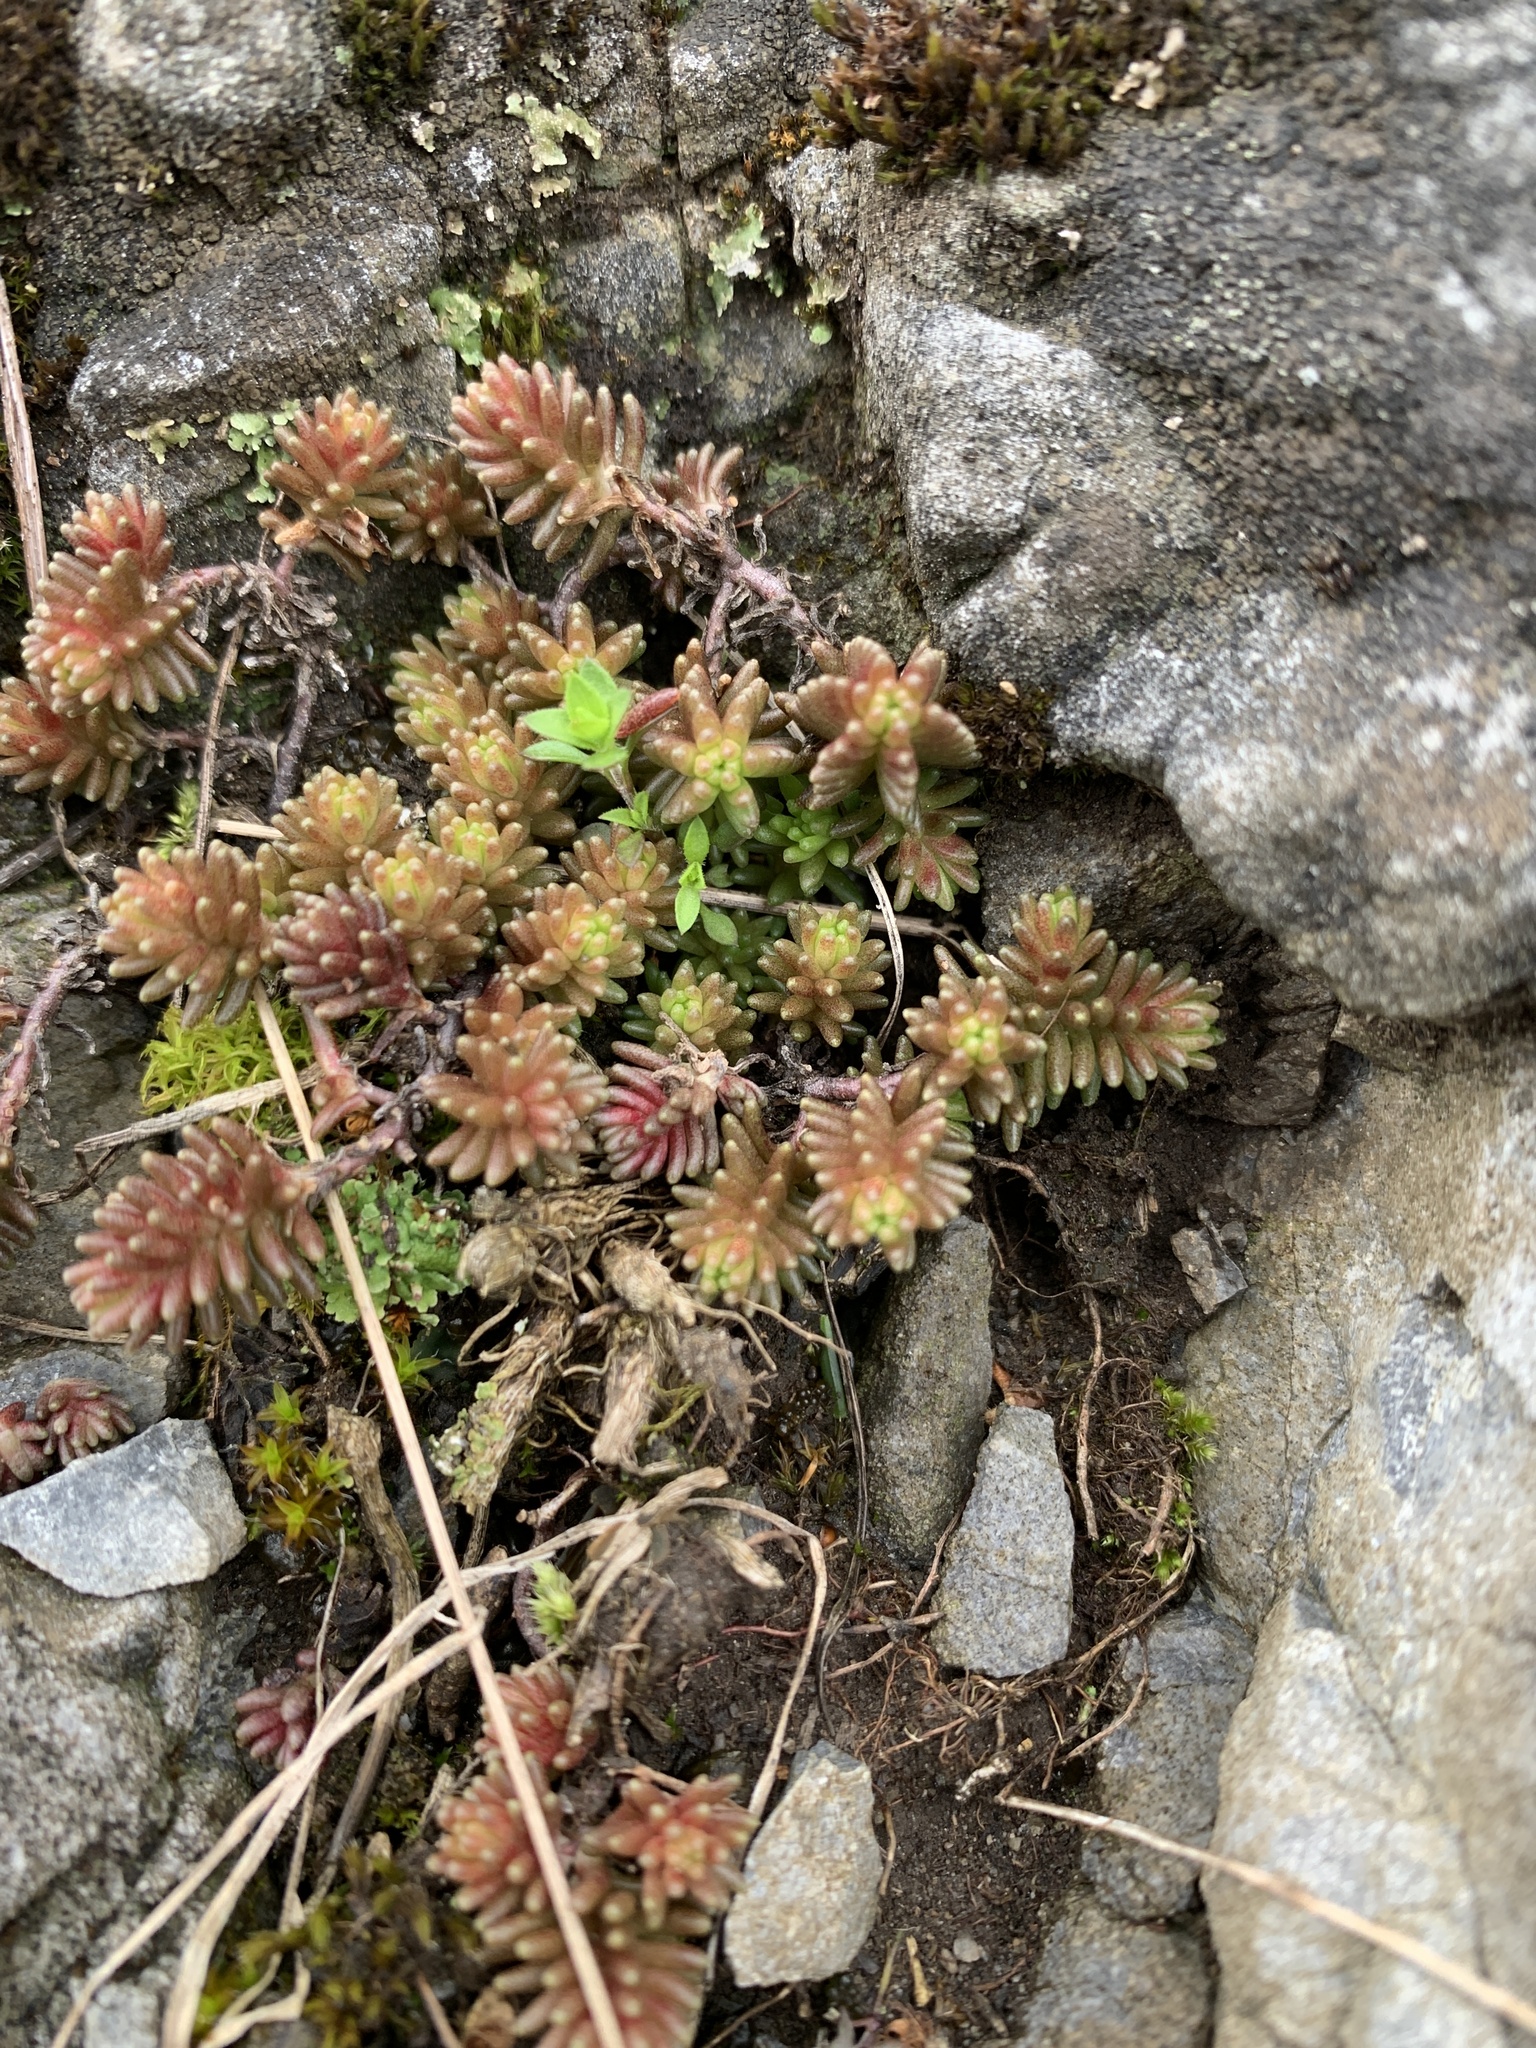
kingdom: Plantae
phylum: Tracheophyta
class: Magnoliopsida
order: Saxifragales
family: Crassulaceae
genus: Sedum
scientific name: Sedum sexangulare
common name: Tasteless stonecrop
